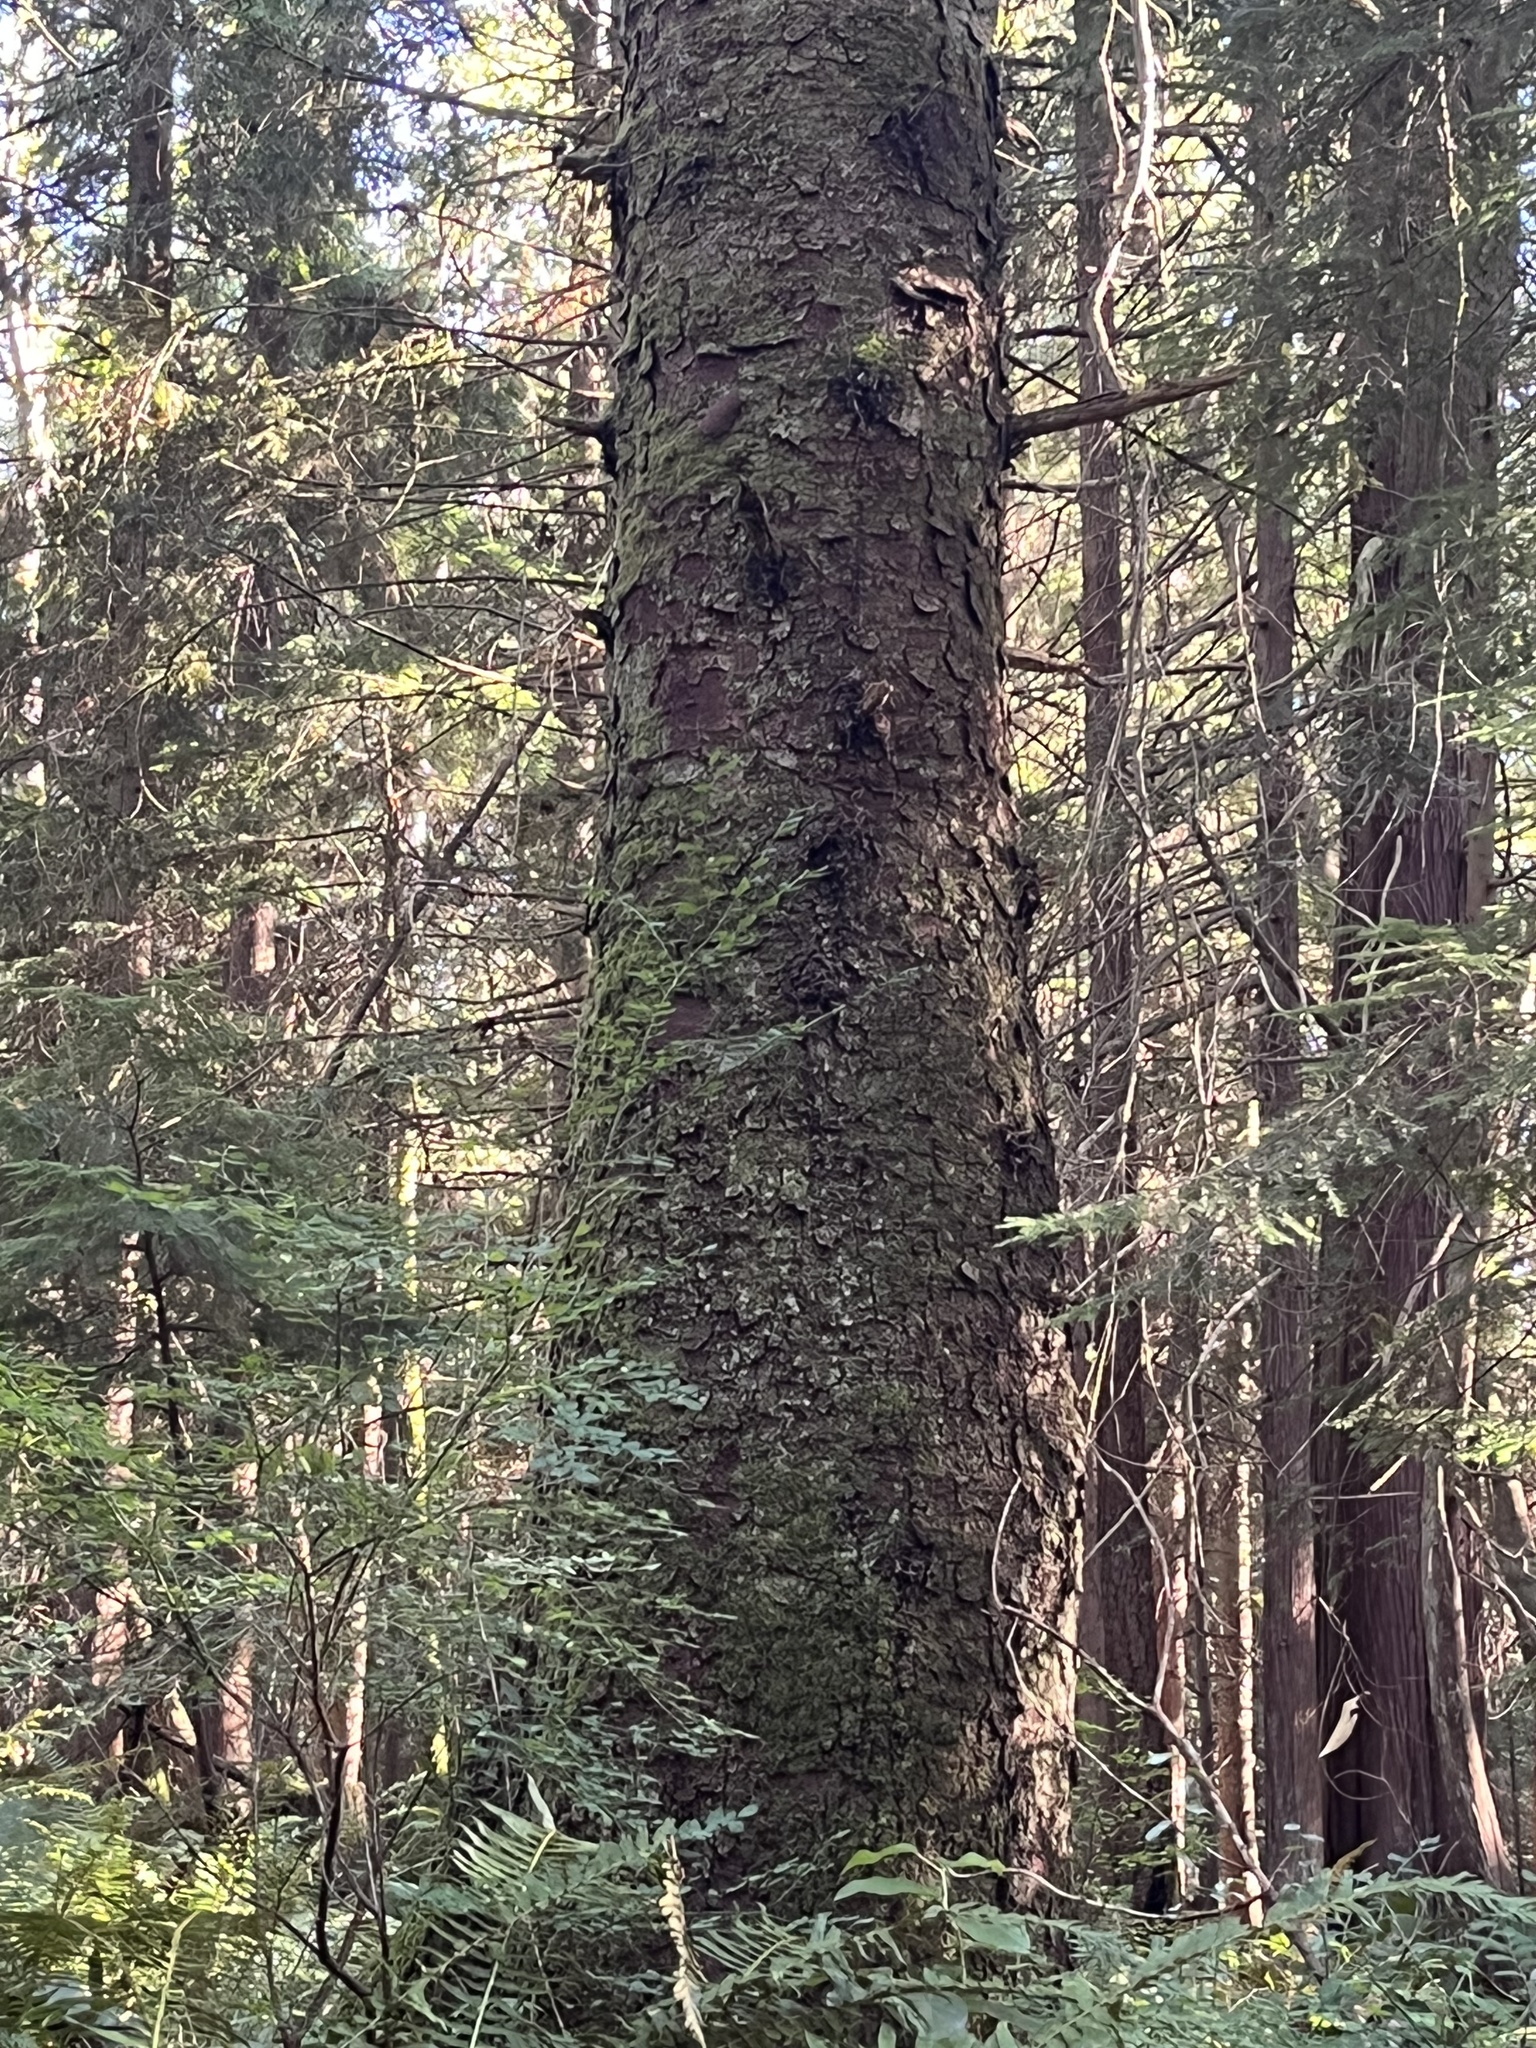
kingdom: Plantae
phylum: Tracheophyta
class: Pinopsida
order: Pinales
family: Pinaceae
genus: Picea
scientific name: Picea sitchensis
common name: Sitka spruce
